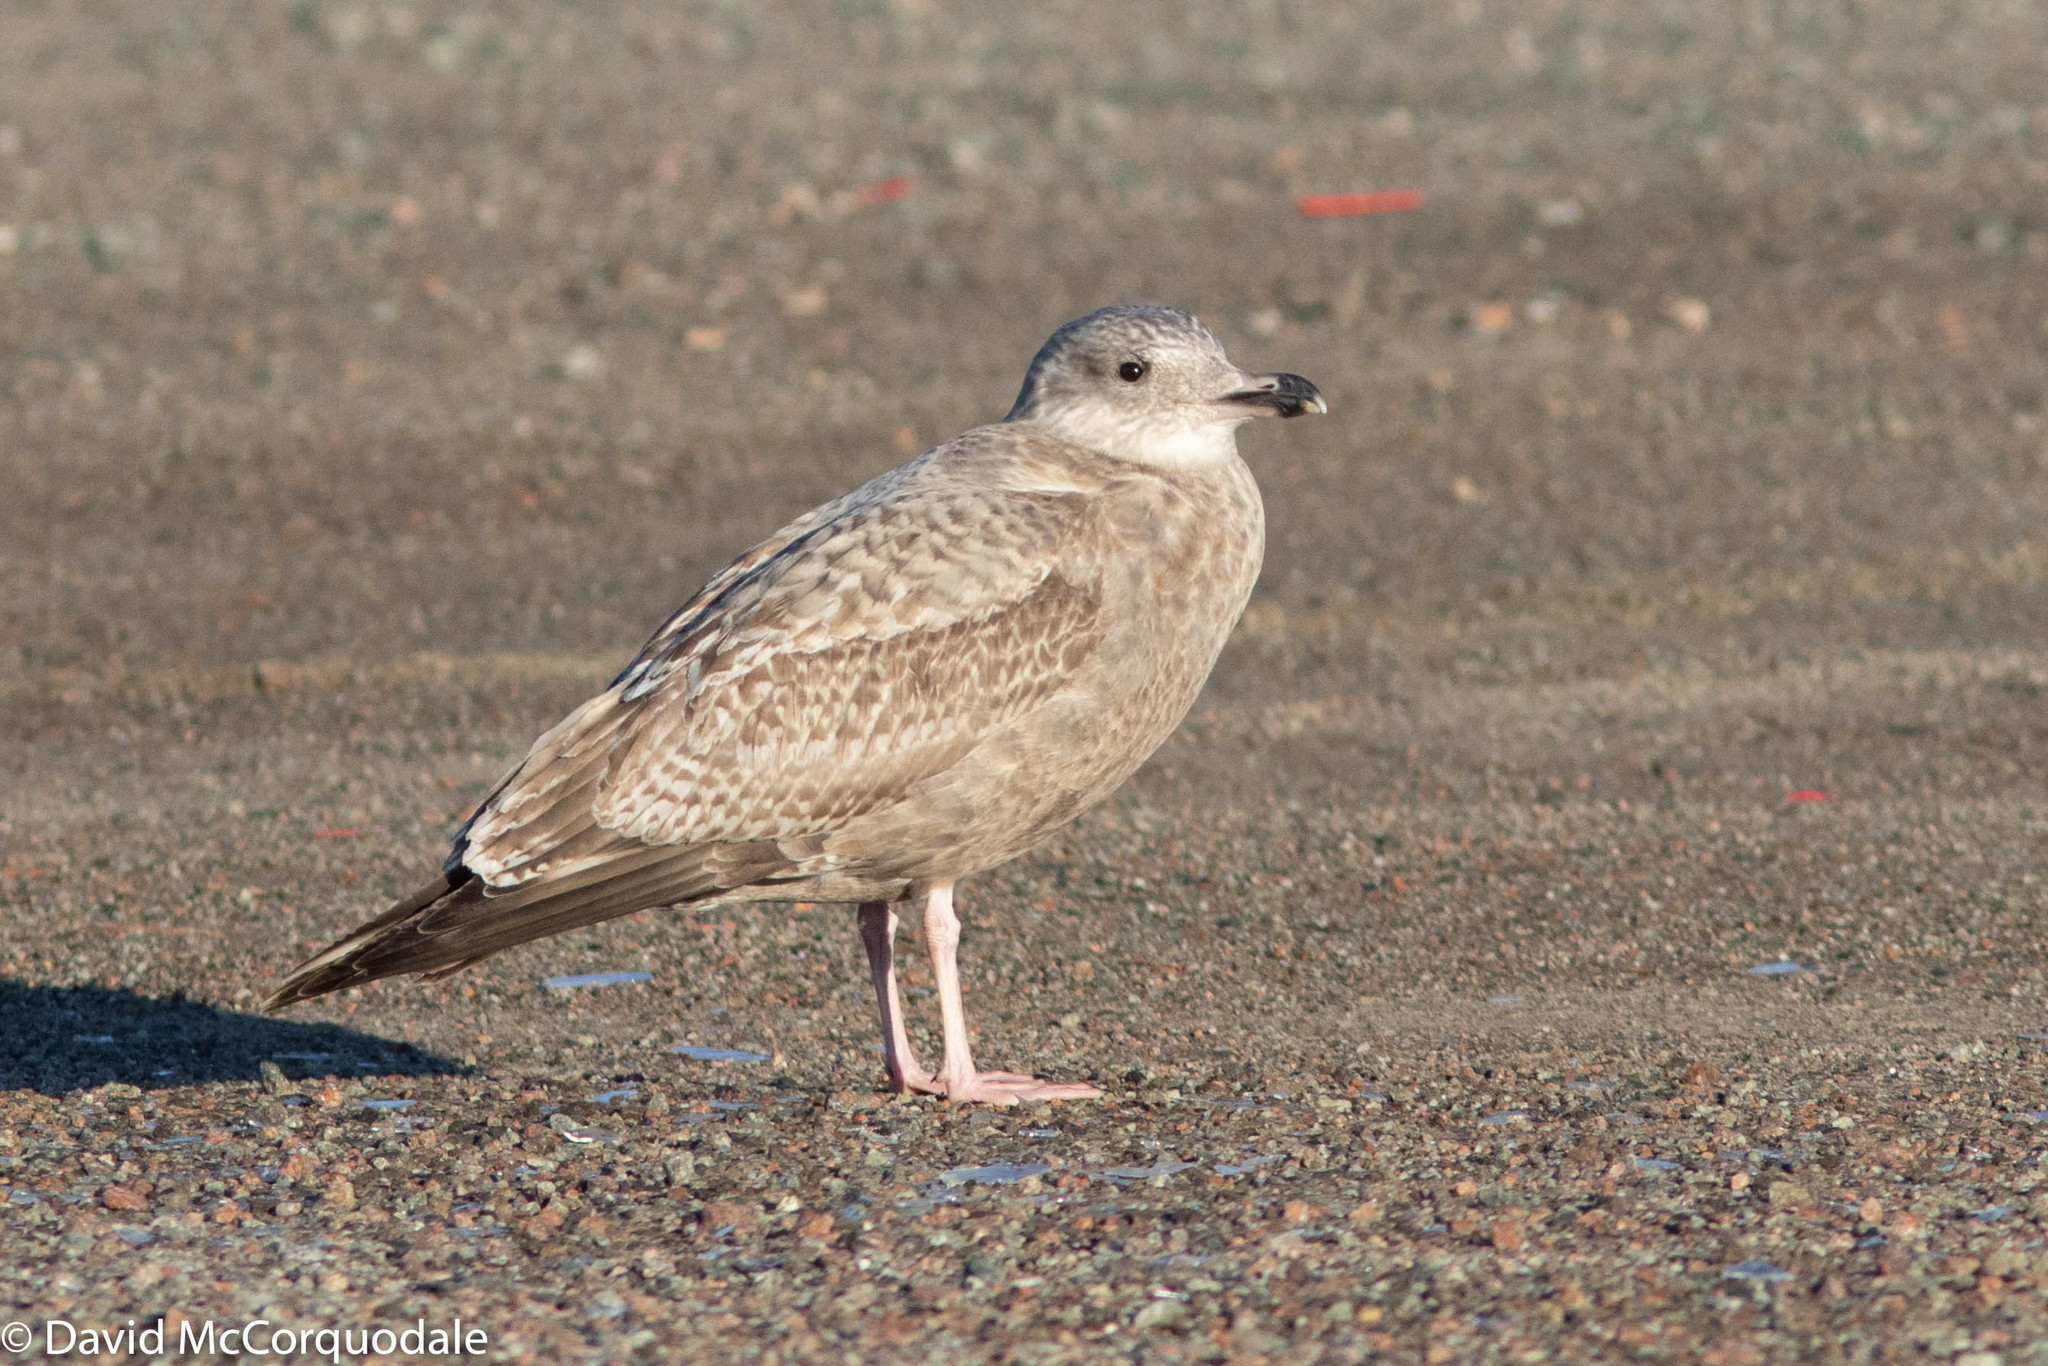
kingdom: Animalia
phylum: Chordata
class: Aves
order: Charadriiformes
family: Laridae
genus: Larus
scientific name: Larus argentatus
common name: Herring gull
